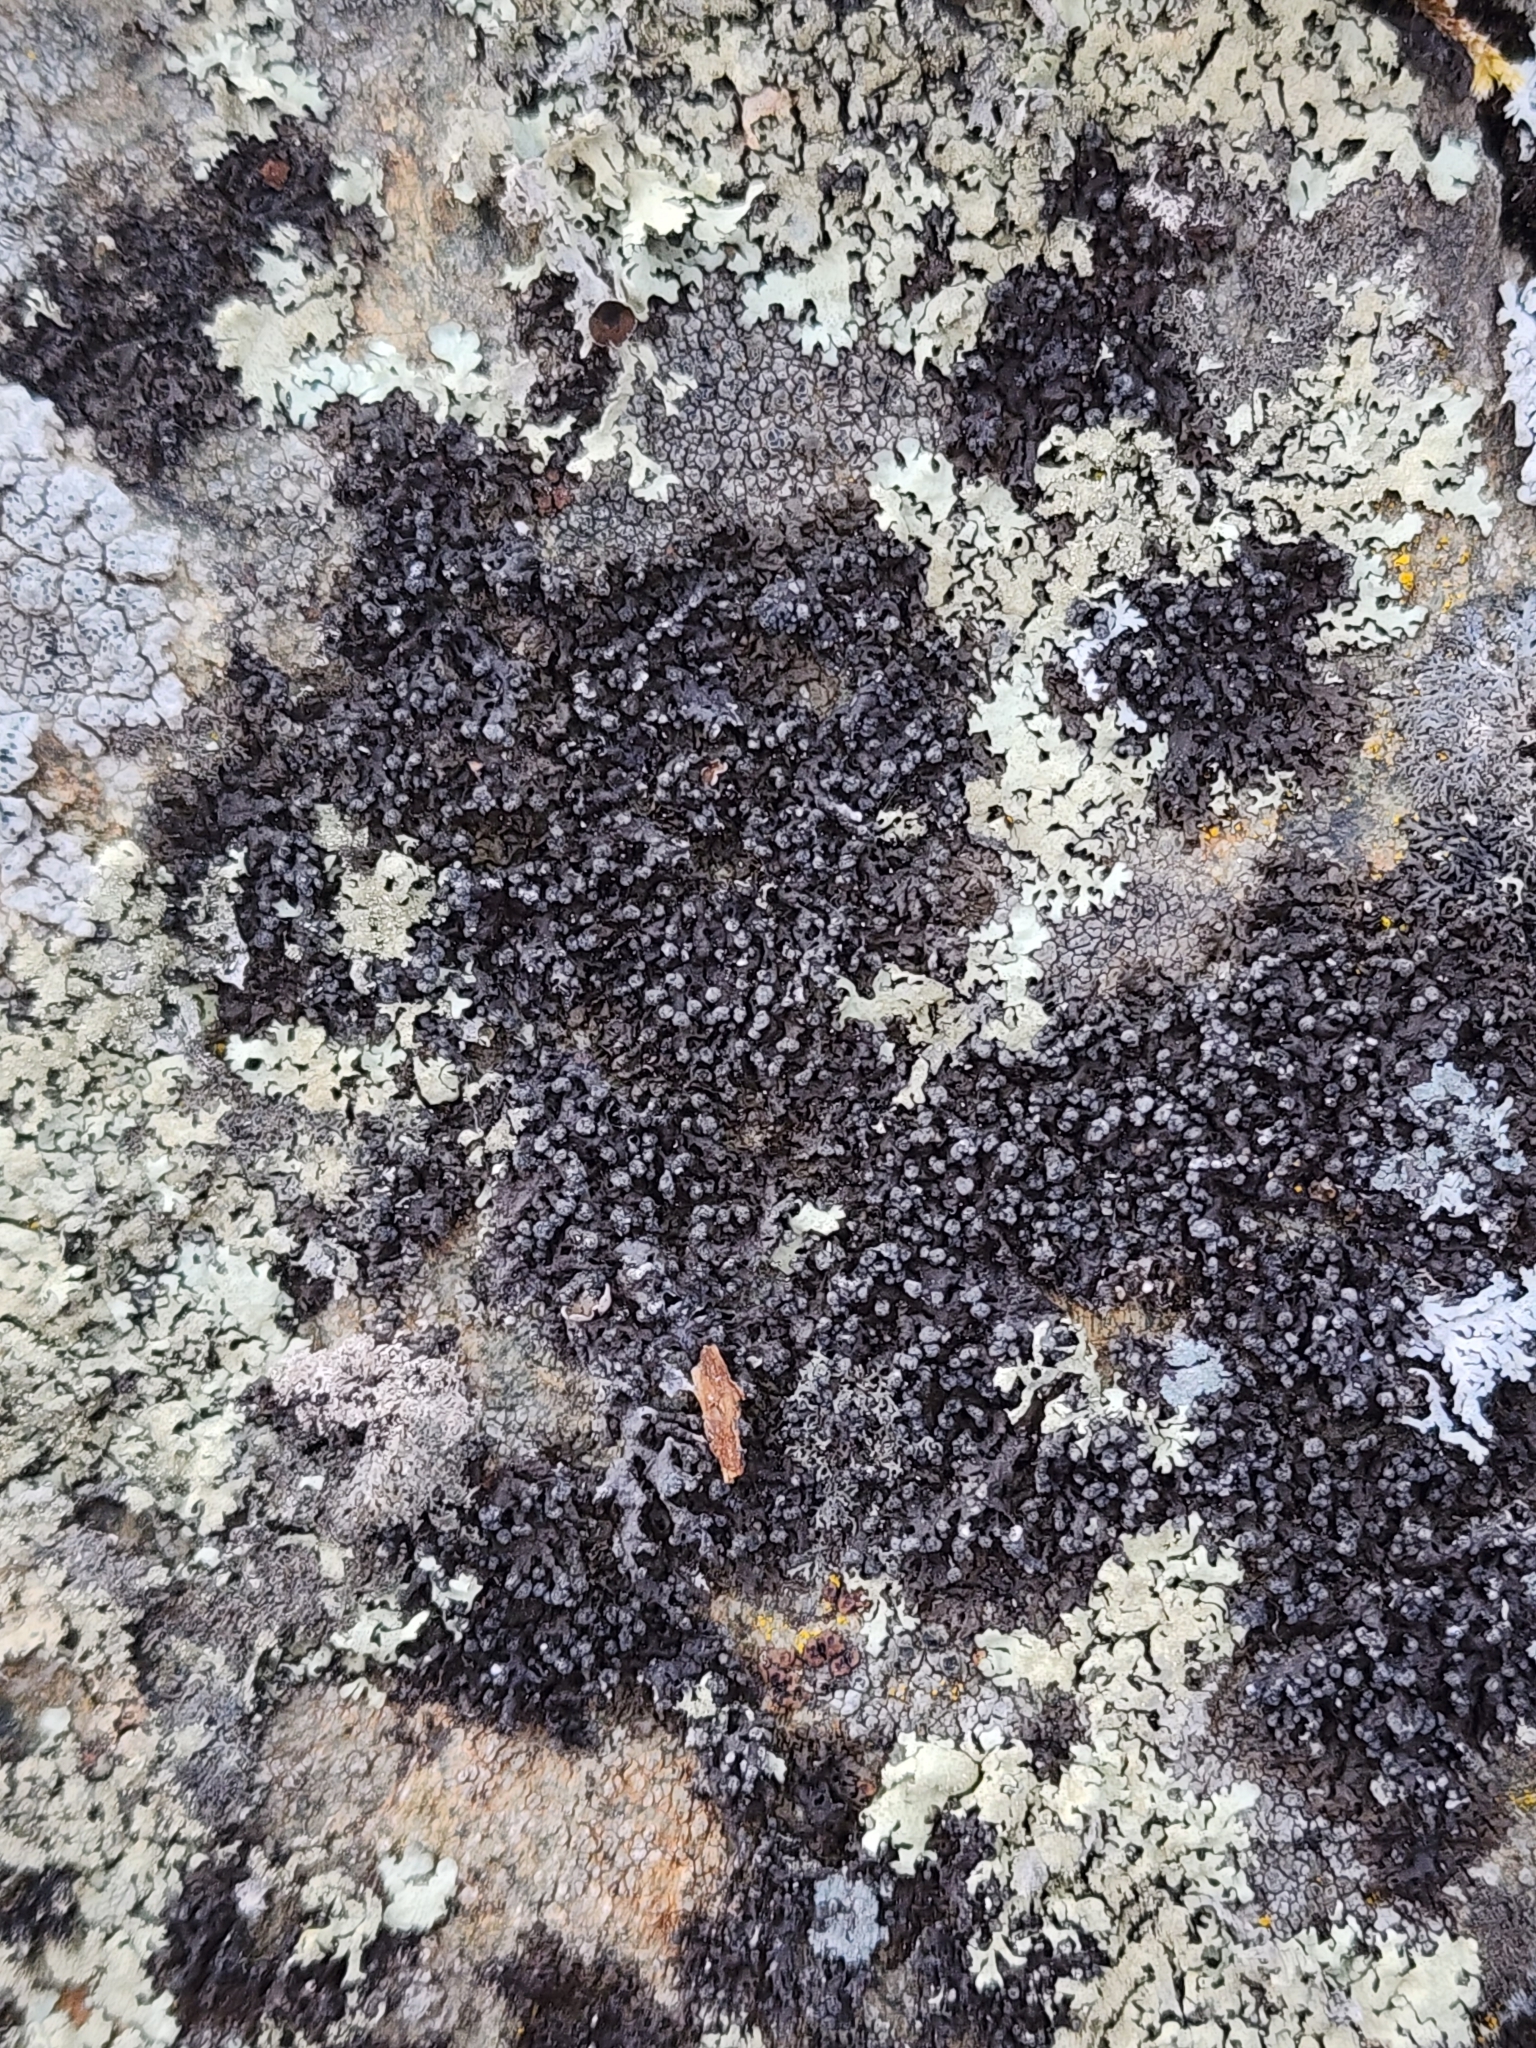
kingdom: Fungi
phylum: Ascomycota
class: Lecanoromycetes
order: Lecanorales
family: Parmeliaceae
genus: Montanelia
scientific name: Montanelia sorediata
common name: Powdered camouflage lichen
